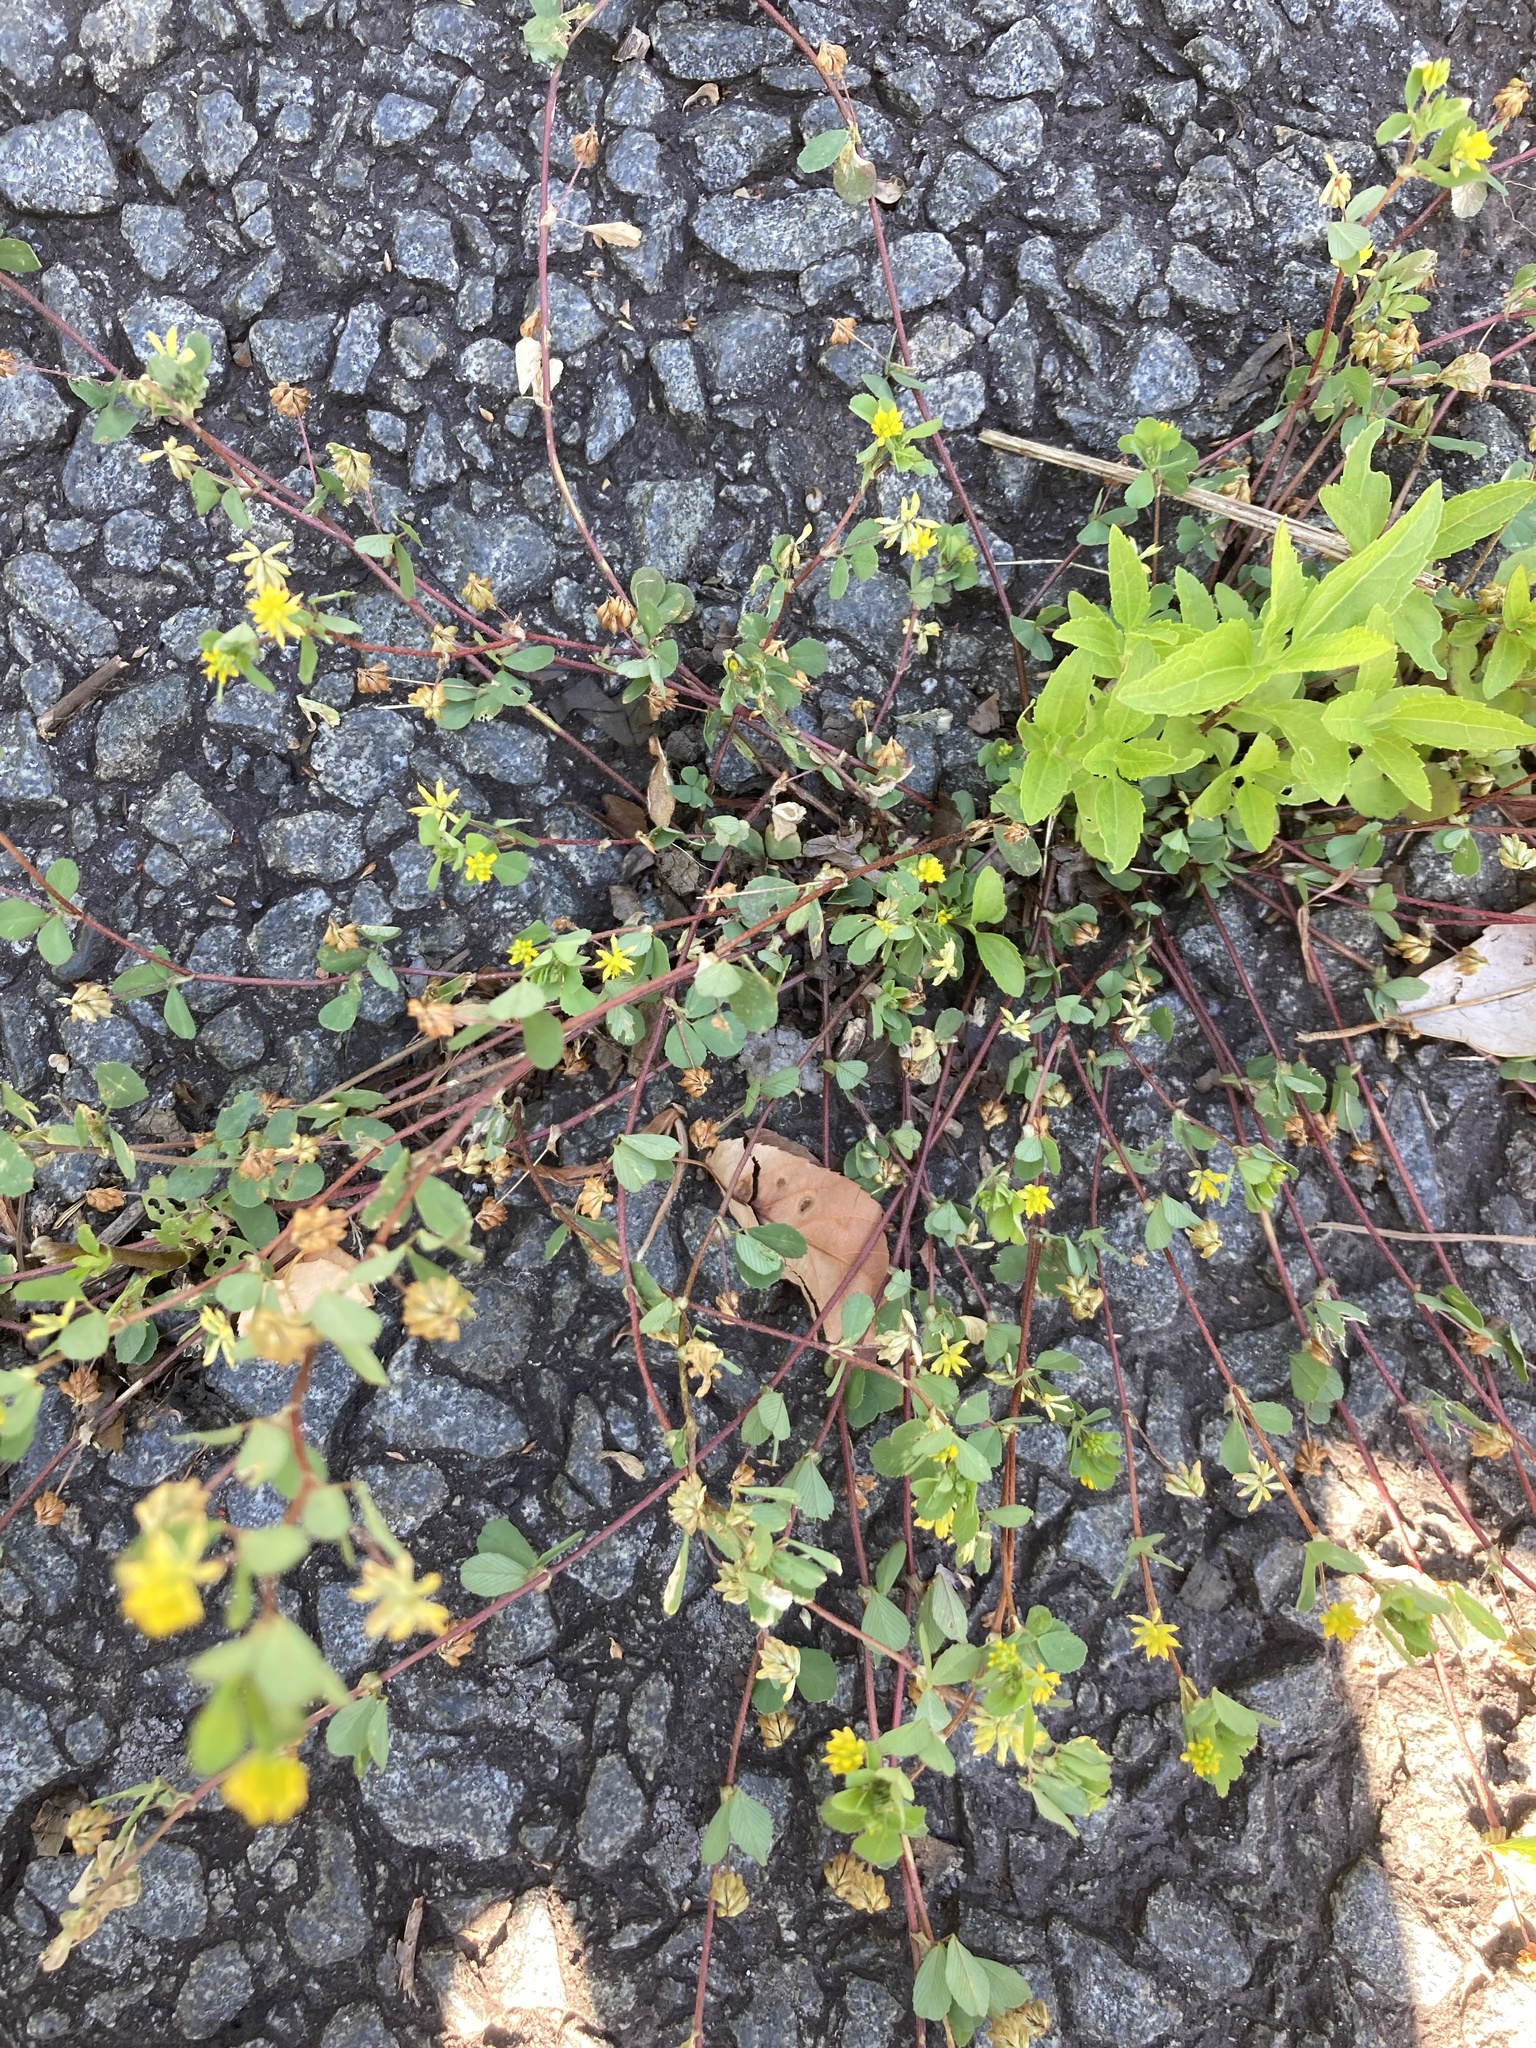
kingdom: Plantae
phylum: Tracheophyta
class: Magnoliopsida
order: Fabales
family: Fabaceae
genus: Trifolium
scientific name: Trifolium dubium
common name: Suckling clover
